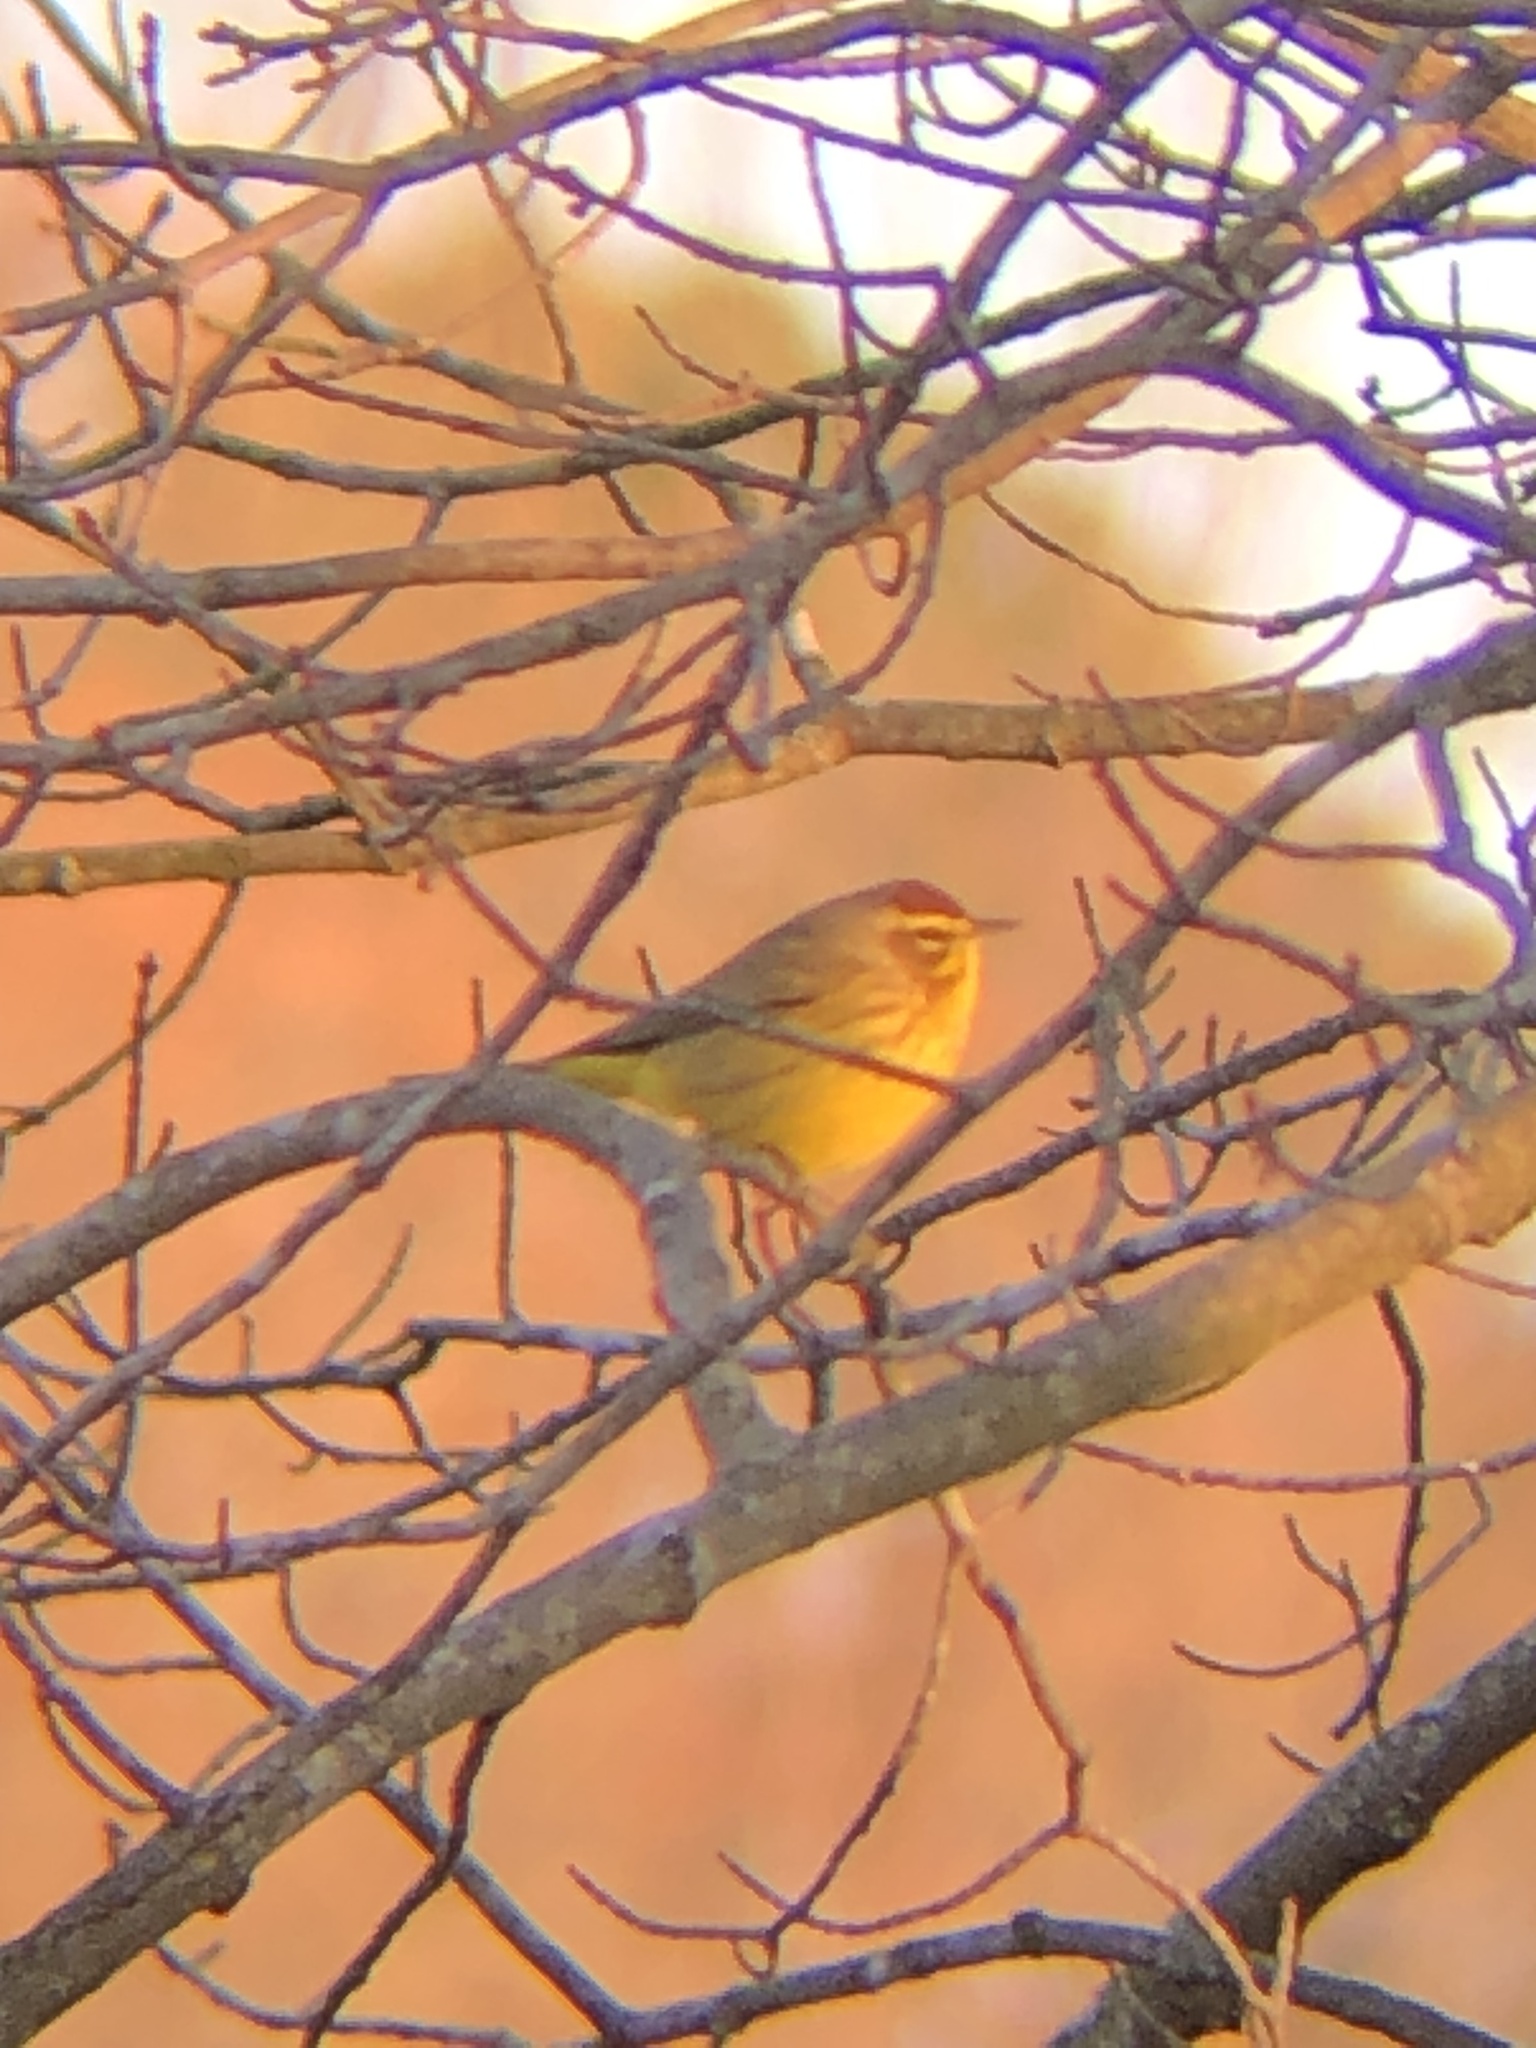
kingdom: Animalia
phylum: Chordata
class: Aves
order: Passeriformes
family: Parulidae
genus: Setophaga
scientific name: Setophaga palmarum
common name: Palm warbler
